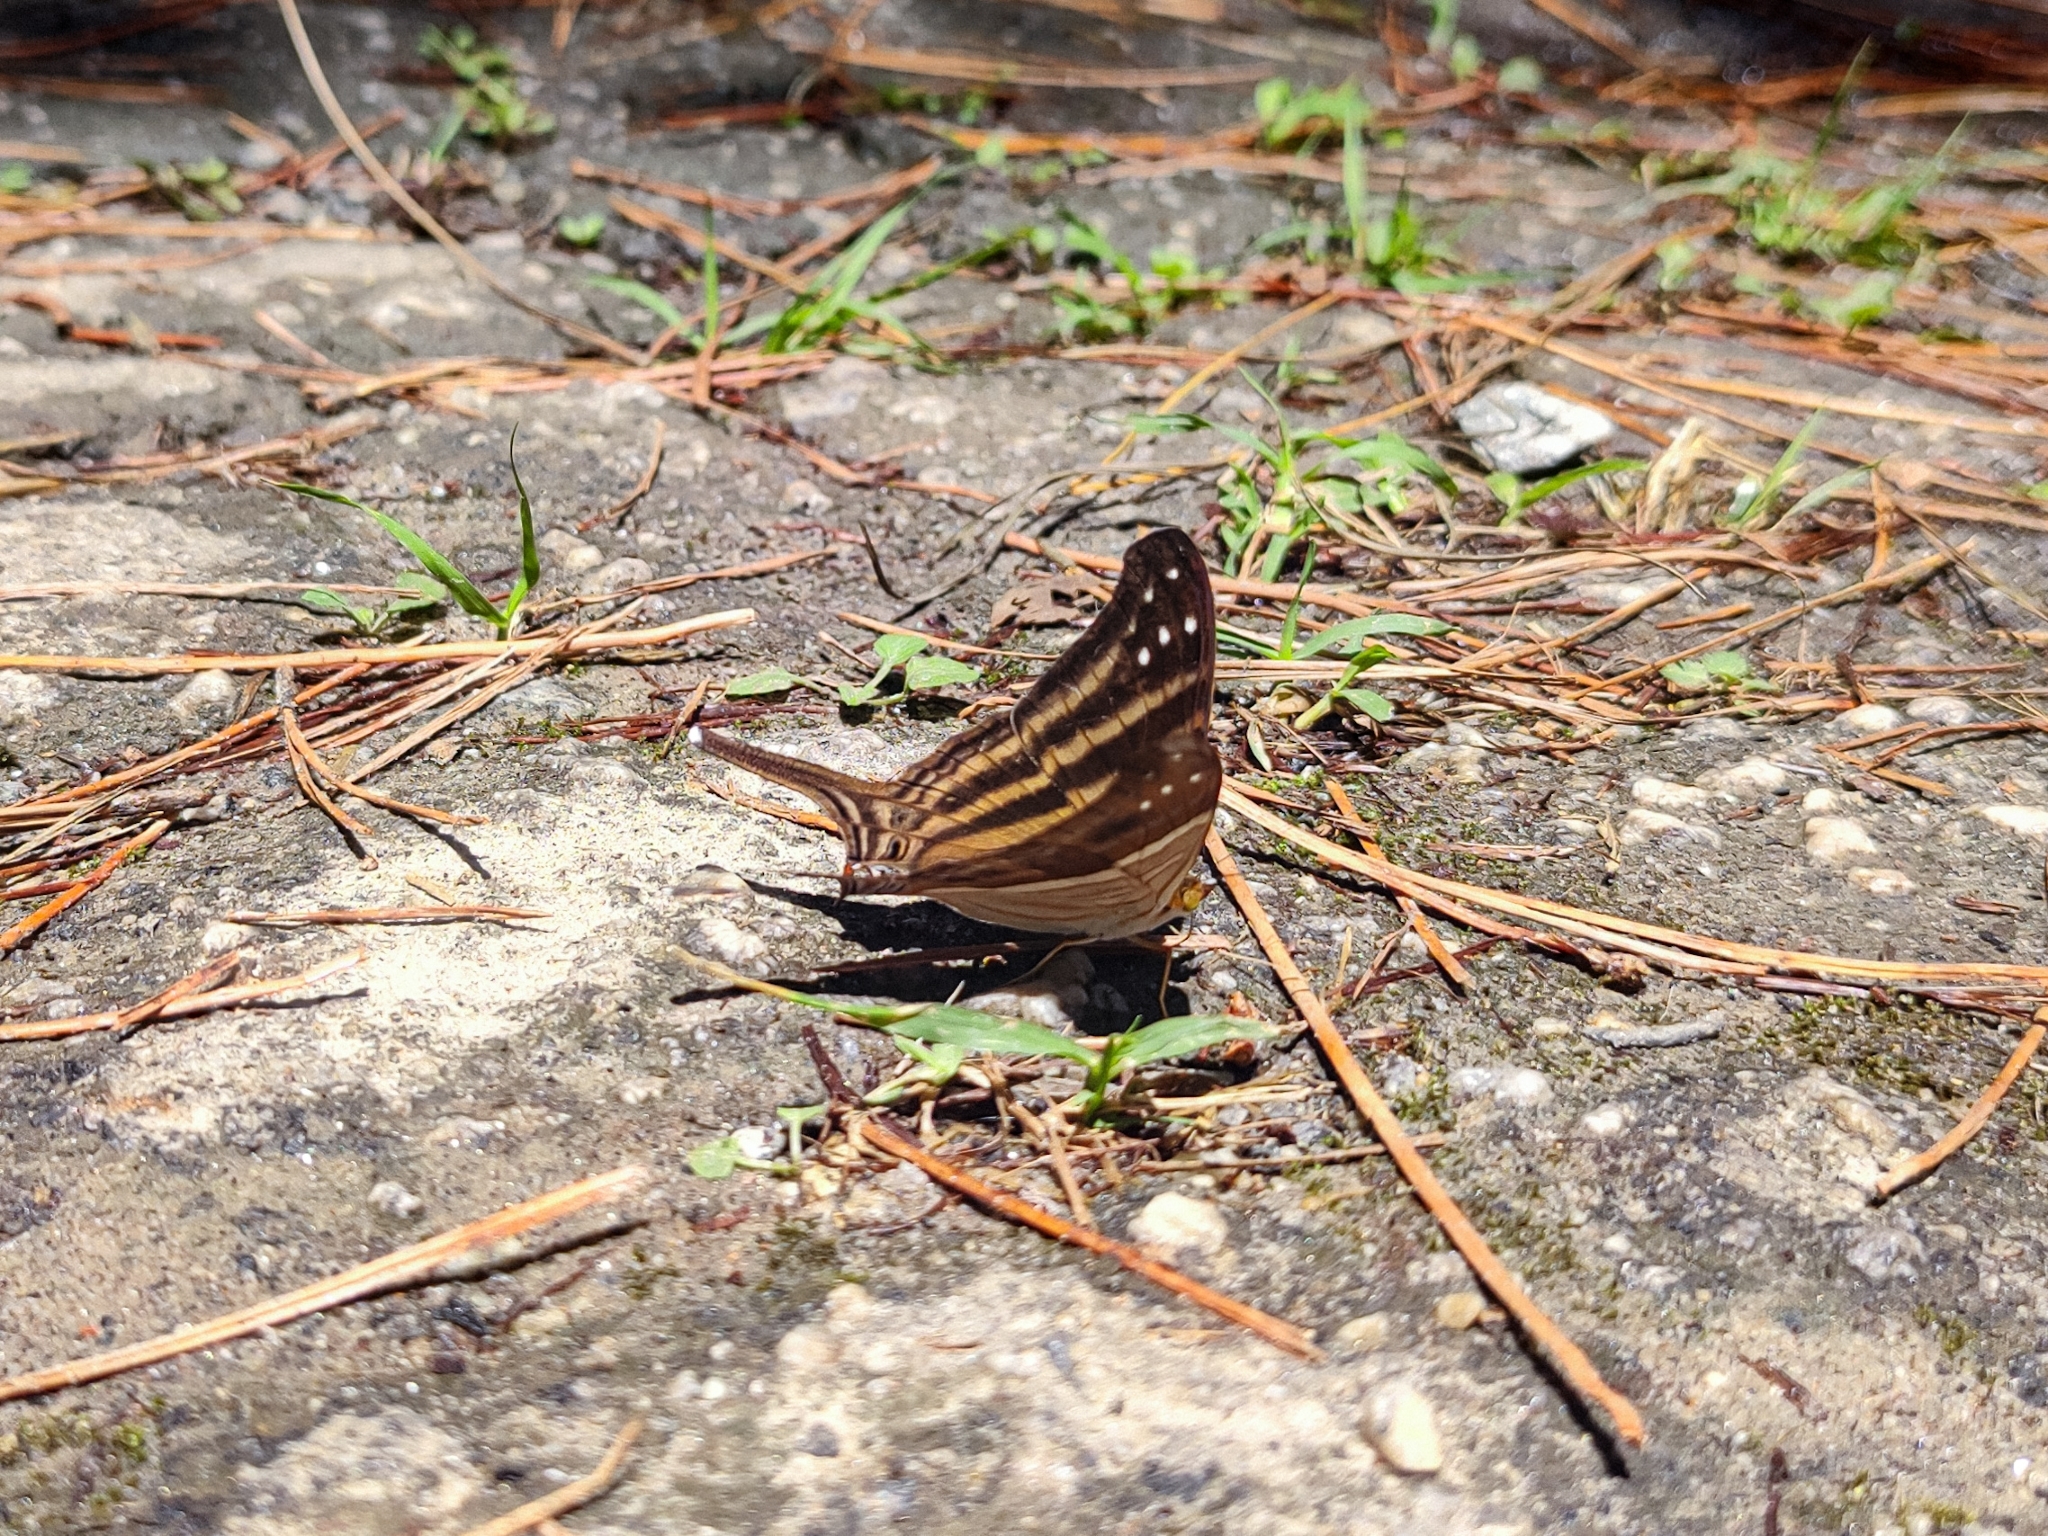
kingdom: Animalia
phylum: Arthropoda
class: Insecta
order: Lepidoptera
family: Nymphalidae
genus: Marpesia
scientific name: Marpesia chiron
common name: Many-banded daggerwing
